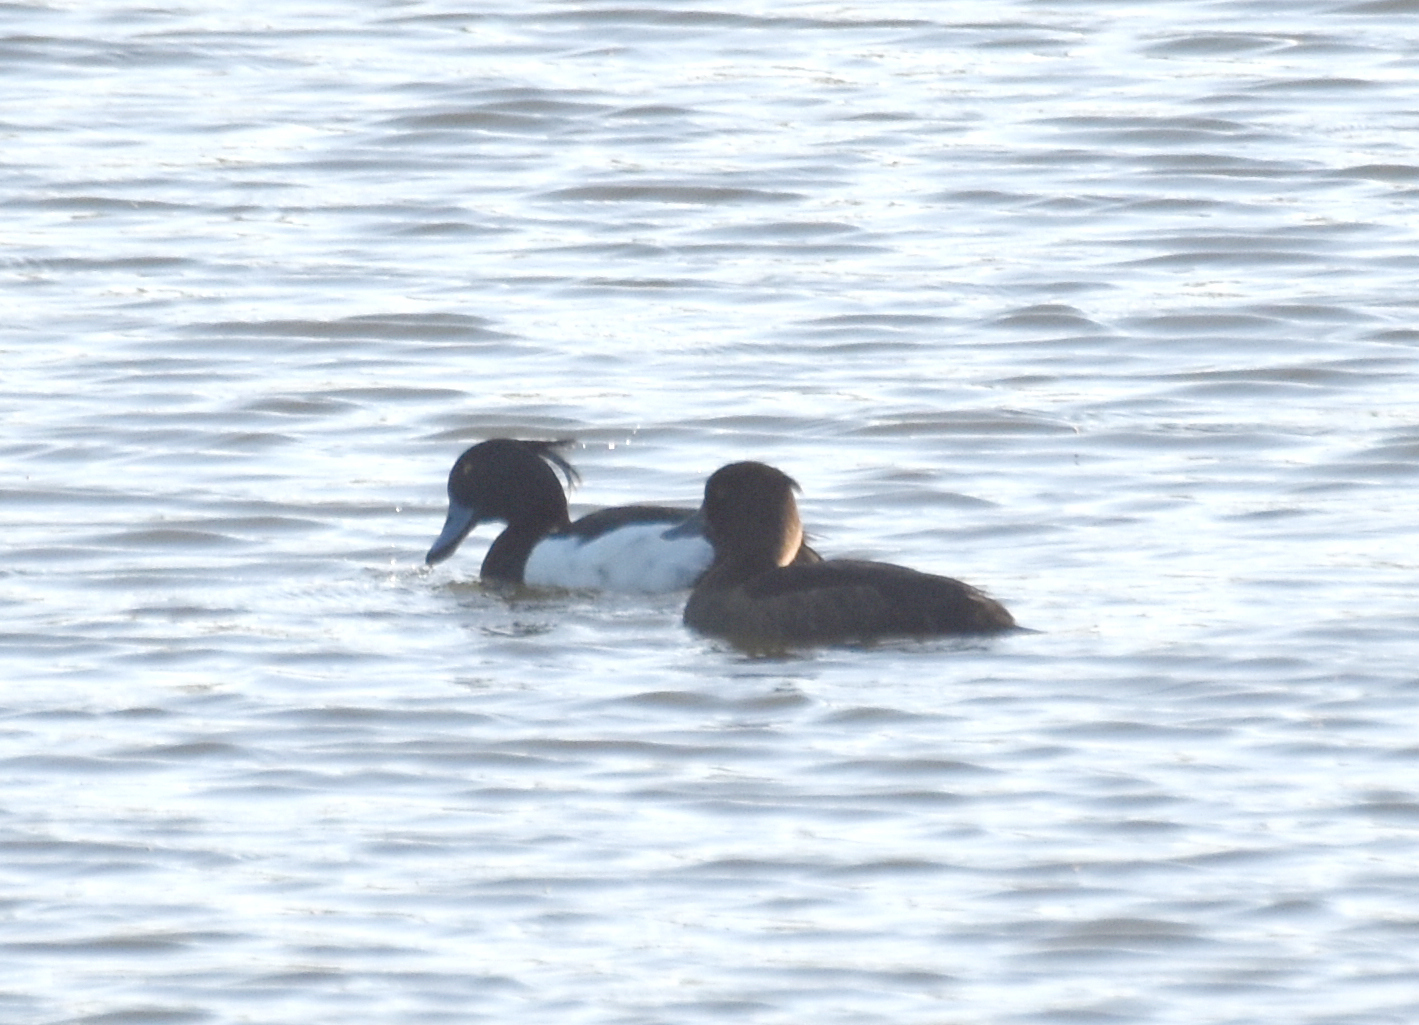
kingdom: Animalia
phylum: Chordata
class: Aves
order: Anseriformes
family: Anatidae
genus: Aythya
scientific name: Aythya fuligula
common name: Tufted duck
